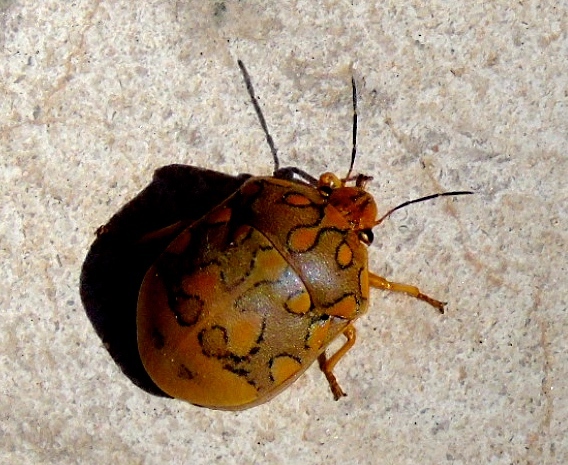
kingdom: Animalia
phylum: Arthropoda
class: Insecta
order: Hemiptera
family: Scutelleridae
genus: Pachycoris
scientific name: Pachycoris torridus
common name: Torrid jewel bug
